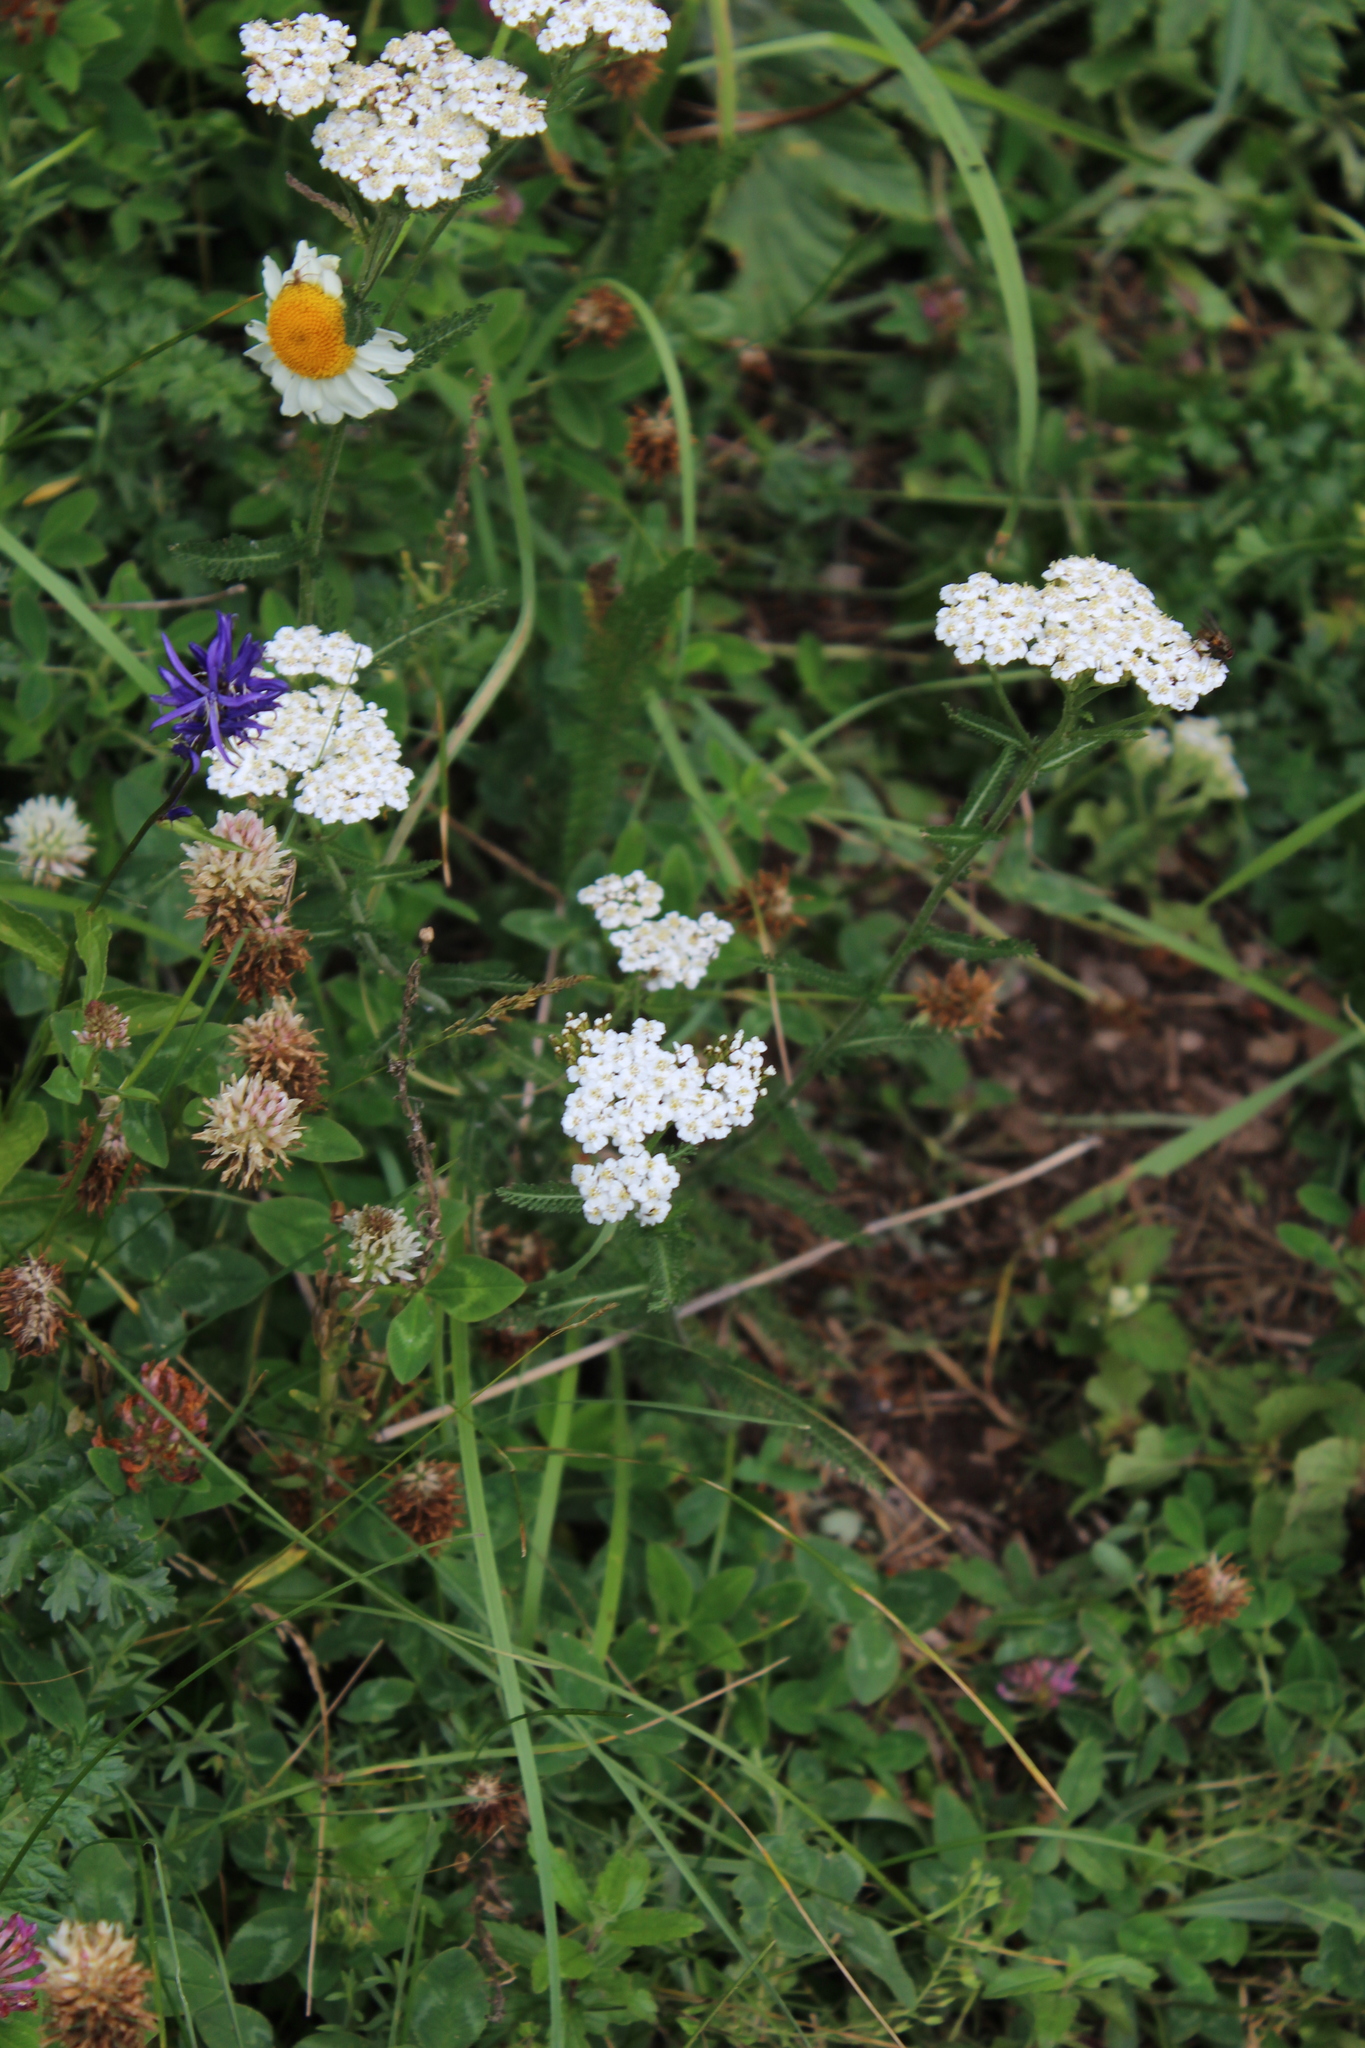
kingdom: Plantae
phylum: Tracheophyta
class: Magnoliopsida
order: Asterales
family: Asteraceae
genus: Achillea
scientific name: Achillea millefolium
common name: Yarrow
